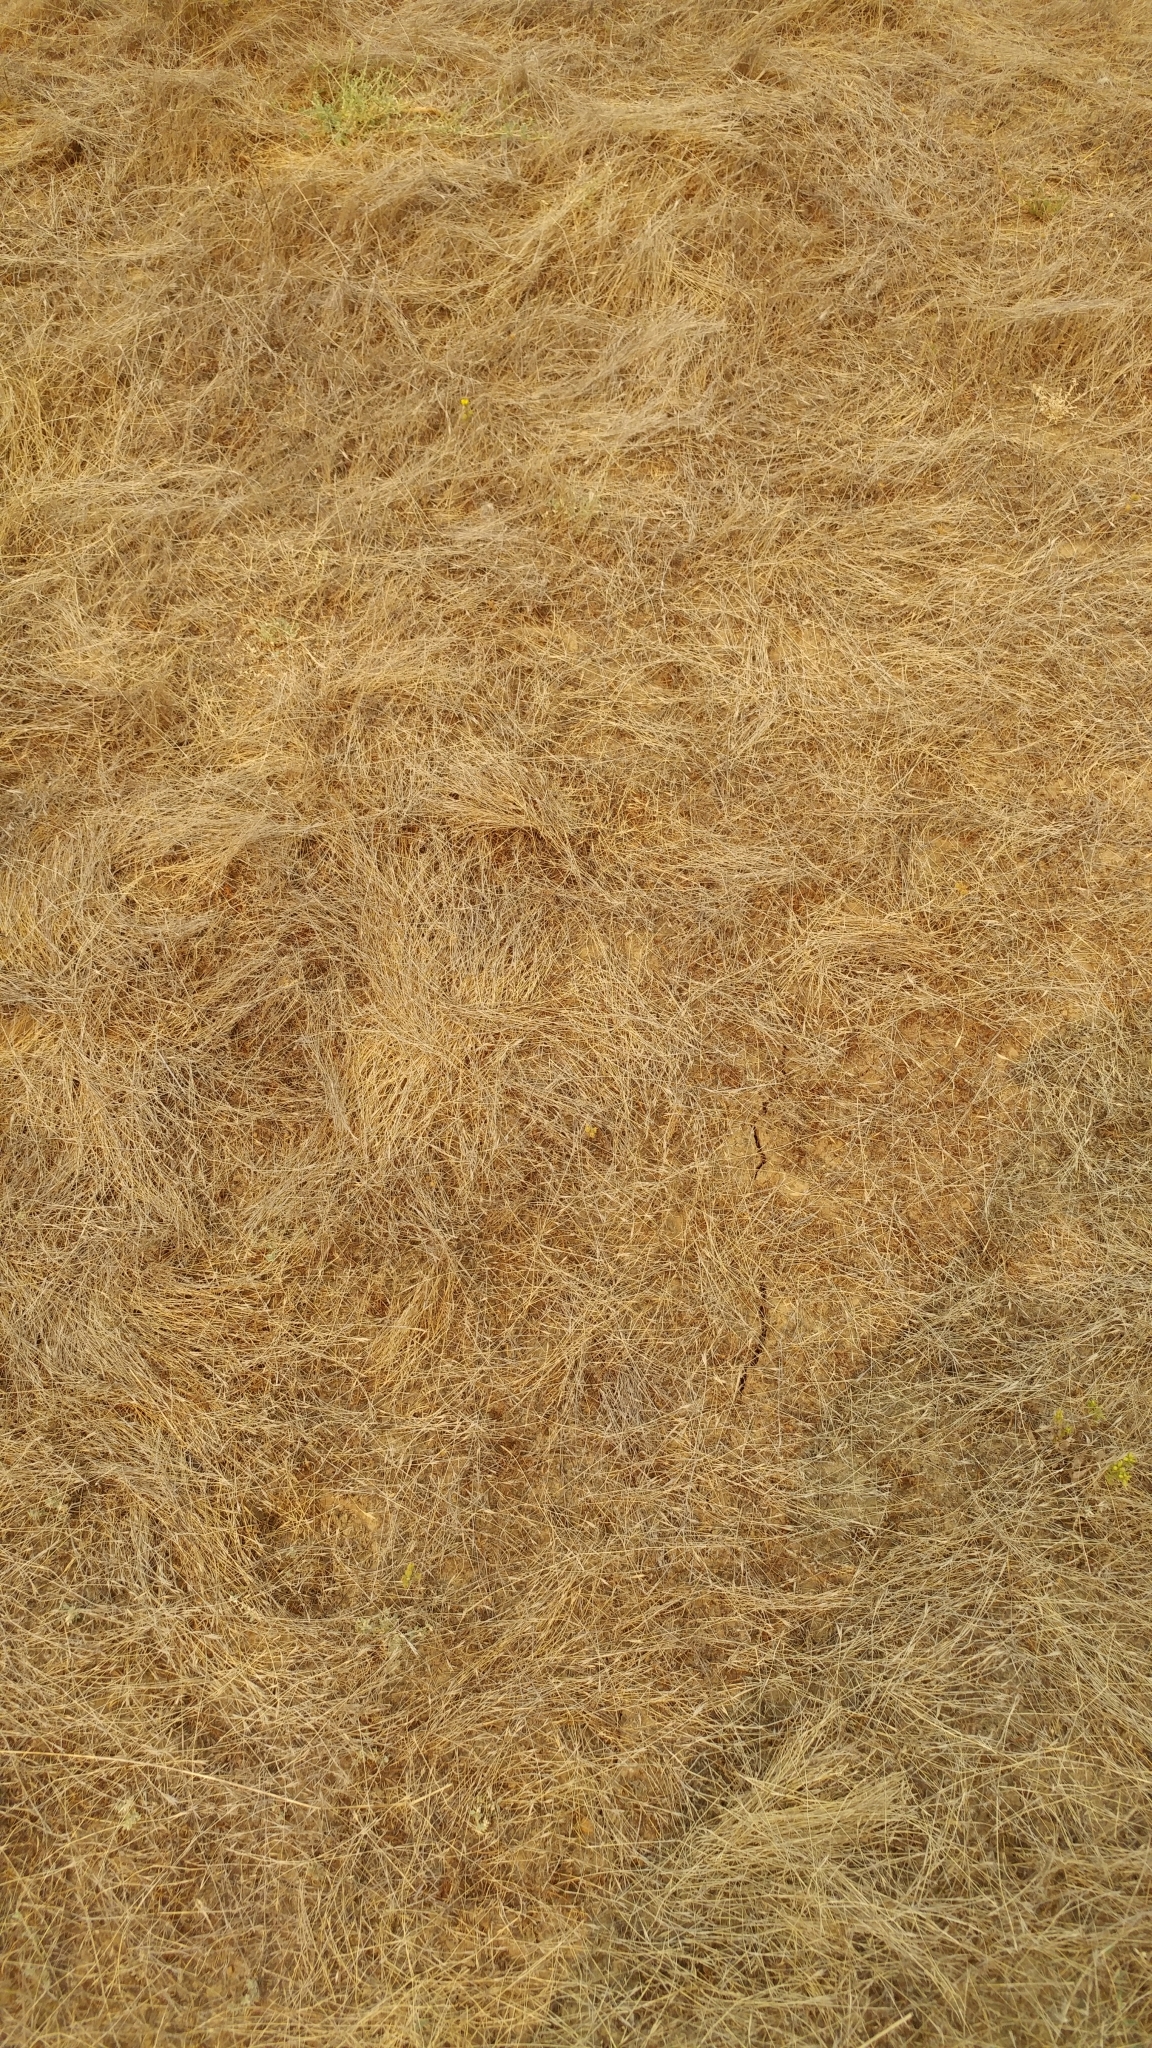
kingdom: Plantae
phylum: Tracheophyta
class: Magnoliopsida
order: Asterales
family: Asteraceae
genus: Deinandra
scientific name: Deinandra increscens
